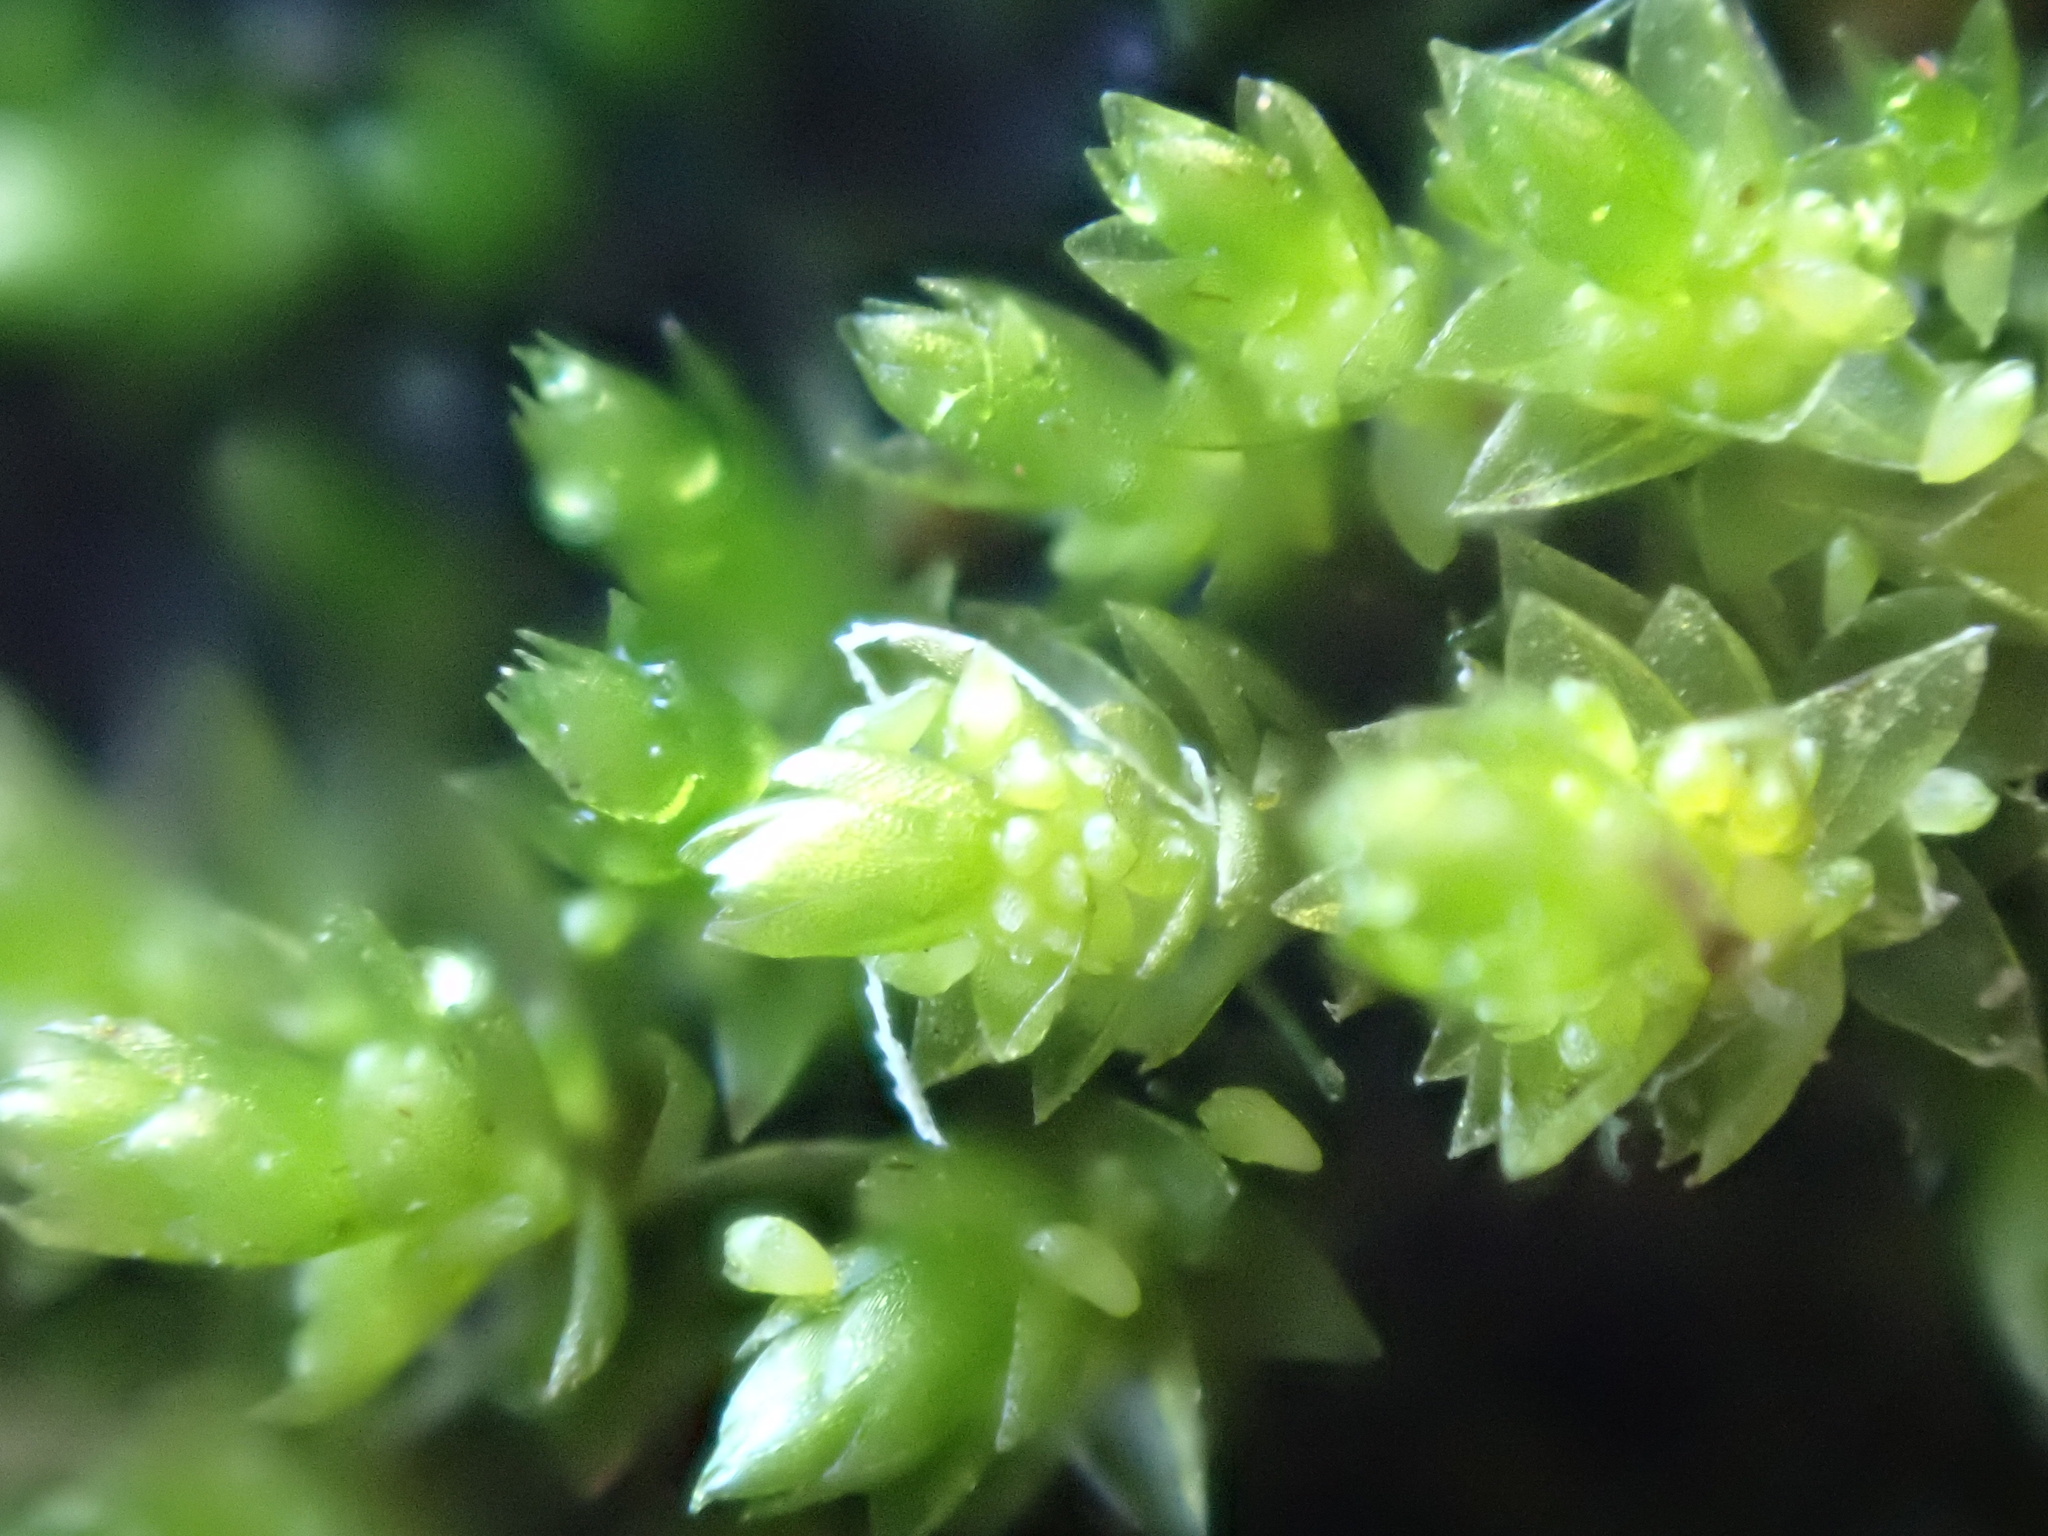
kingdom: Plantae
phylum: Bryophyta
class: Bryopsida
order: Bryales
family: Bryaceae
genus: Gemmabryum
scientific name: Gemmabryum
